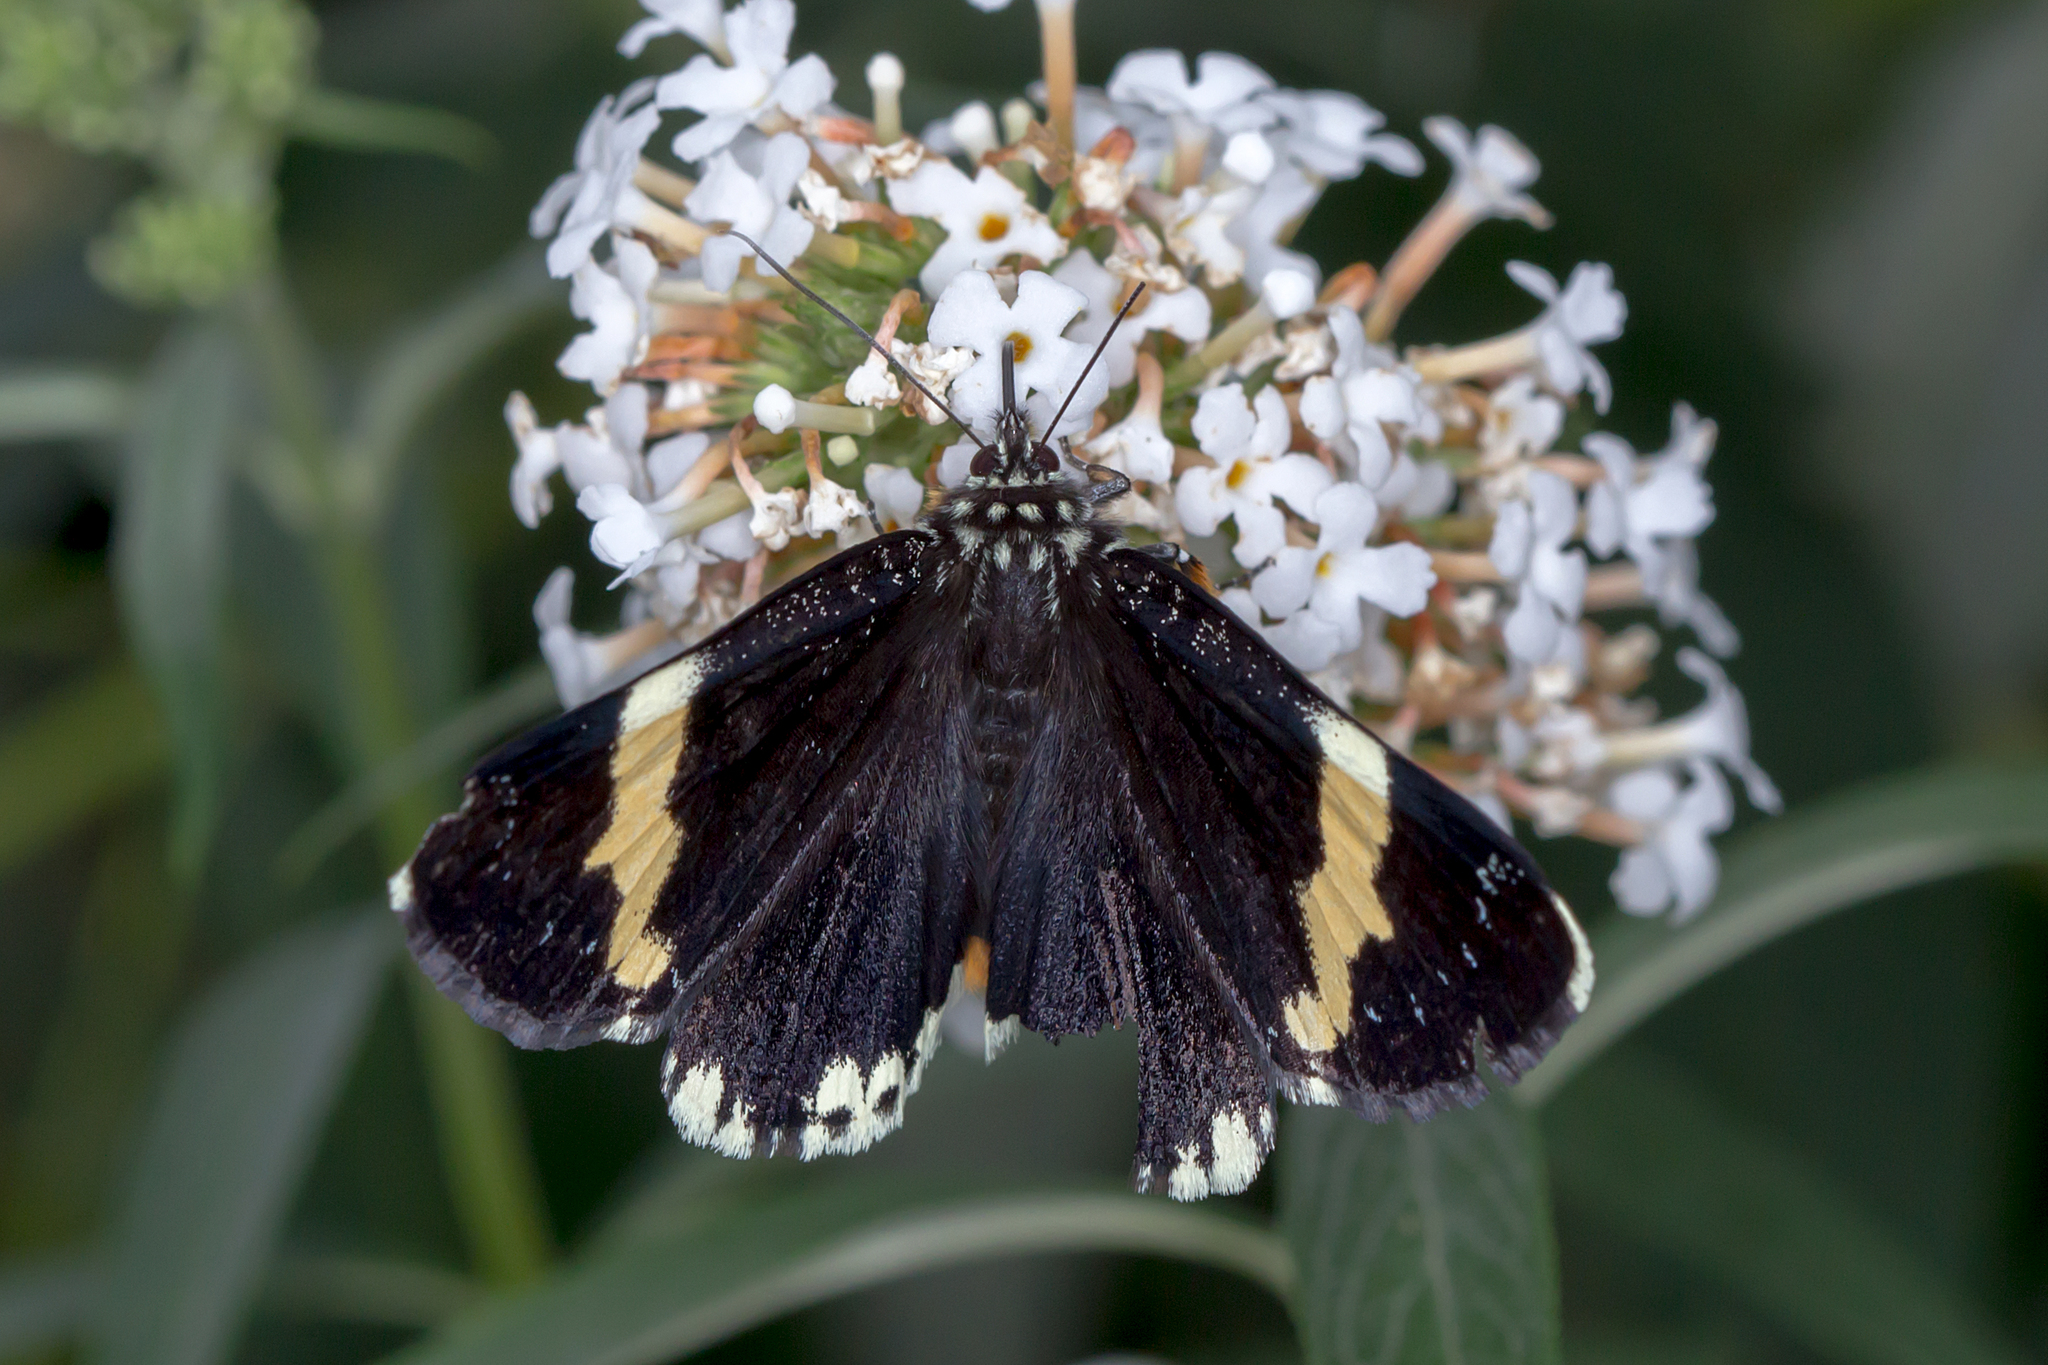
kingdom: Animalia
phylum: Arthropoda
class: Insecta
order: Lepidoptera
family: Noctuidae
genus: Eutrichopidia
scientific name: Eutrichopidia latinus
